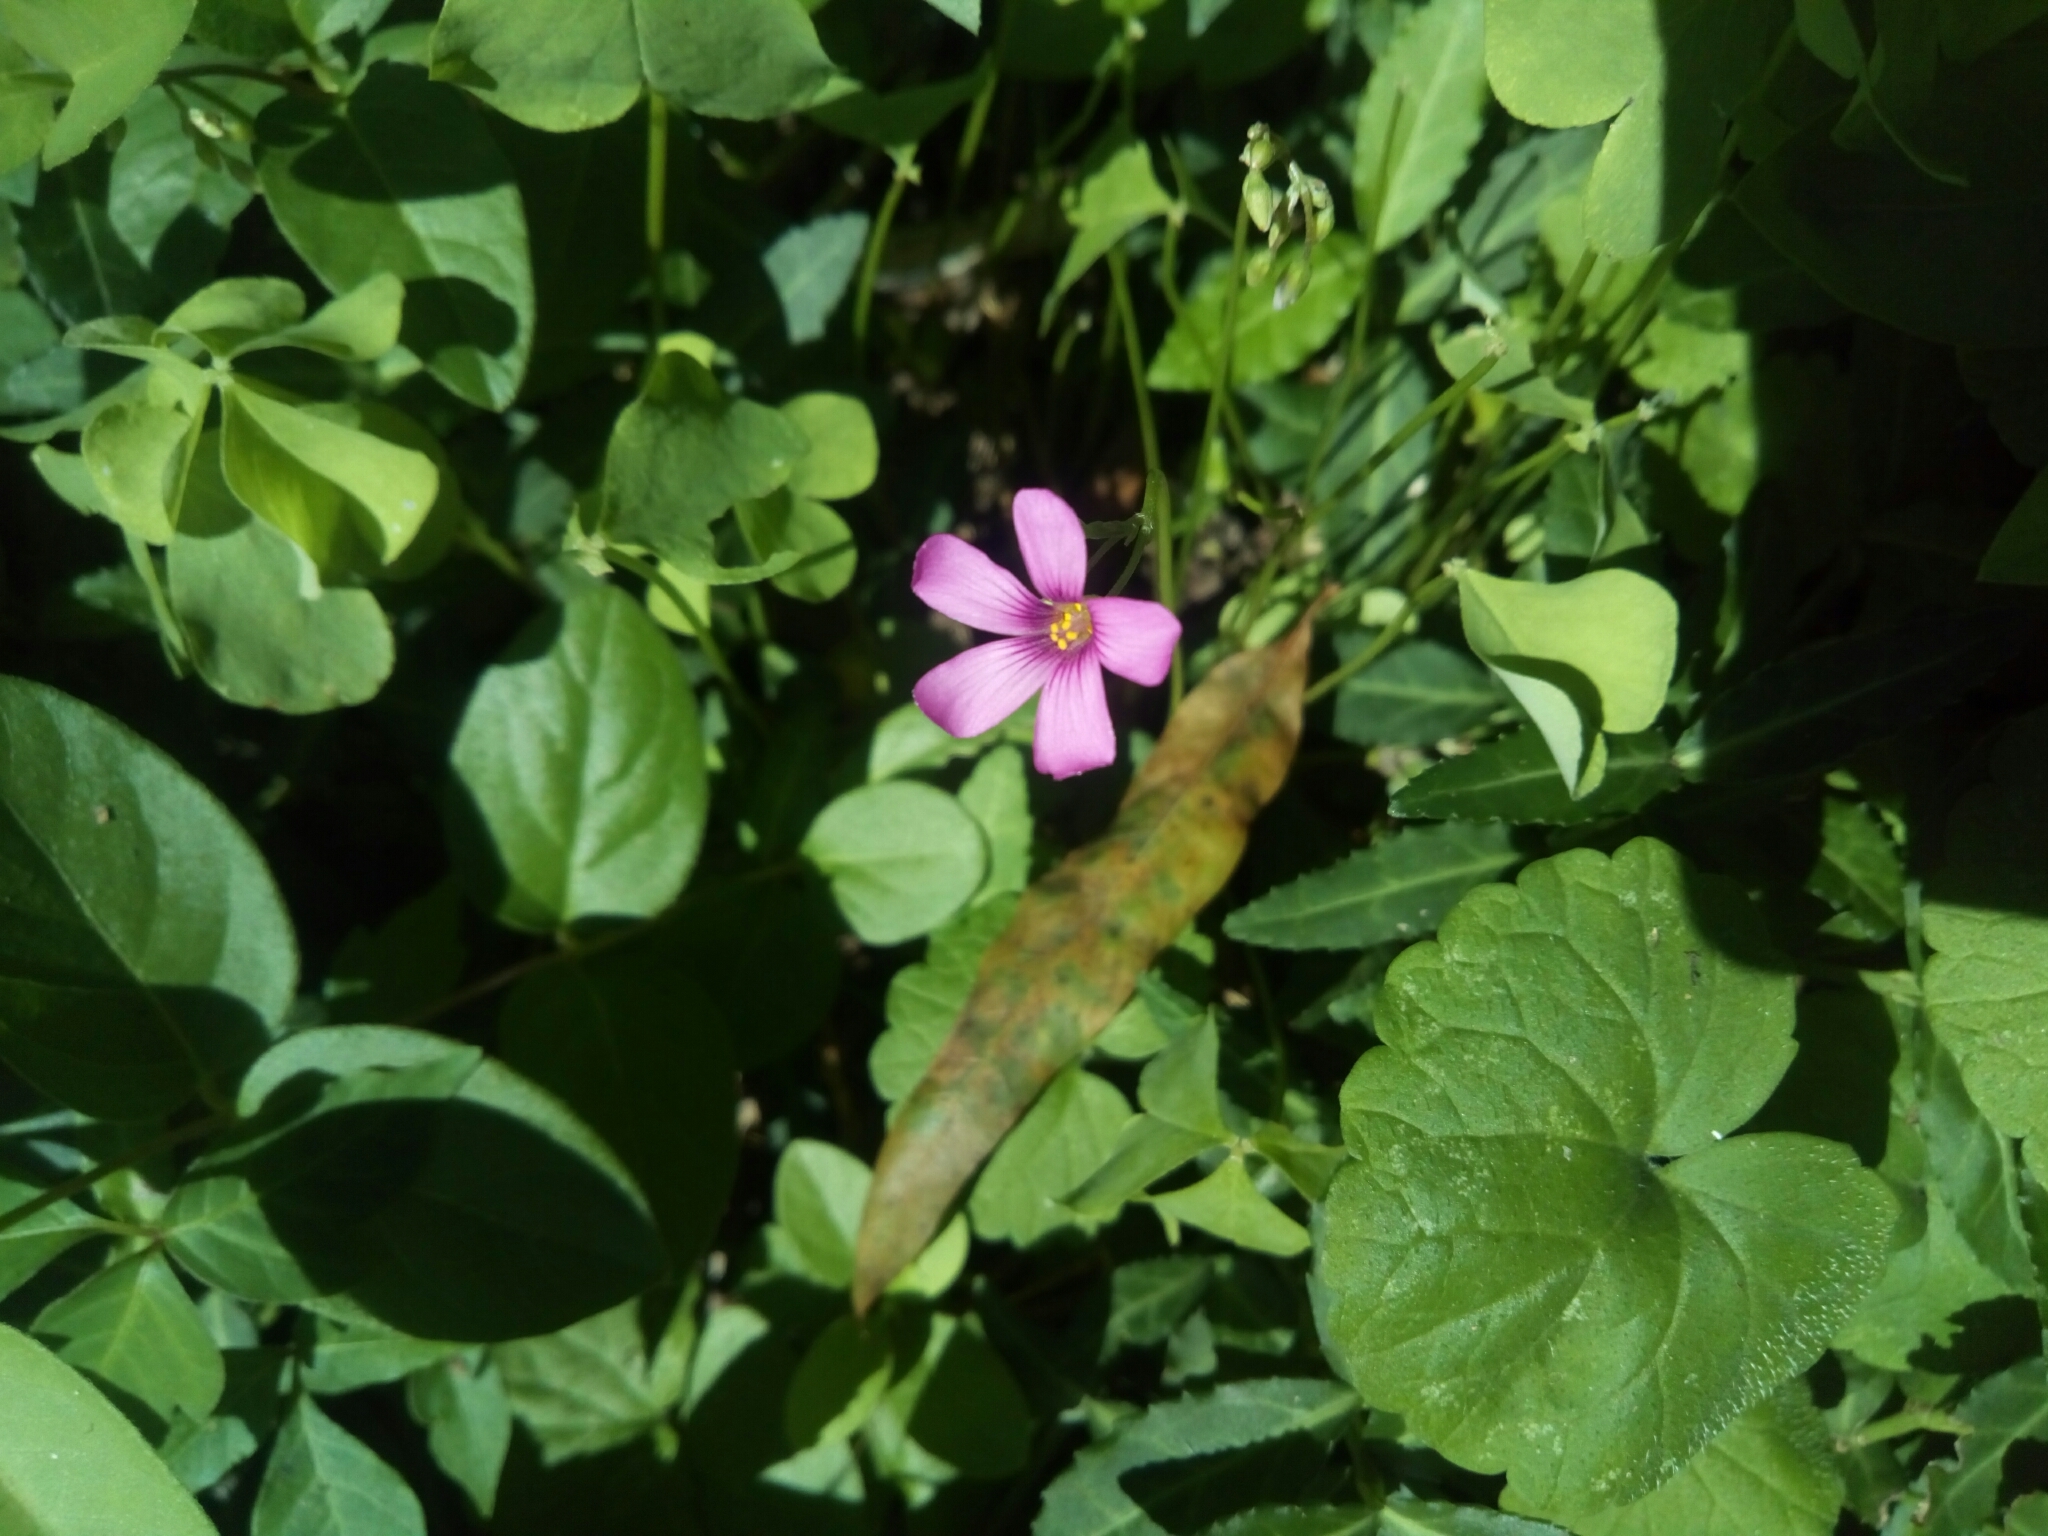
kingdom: Plantae
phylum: Tracheophyta
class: Magnoliopsida
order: Oxalidales
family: Oxalidaceae
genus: Oxalis
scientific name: Oxalis articulata
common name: Pink-sorrel
